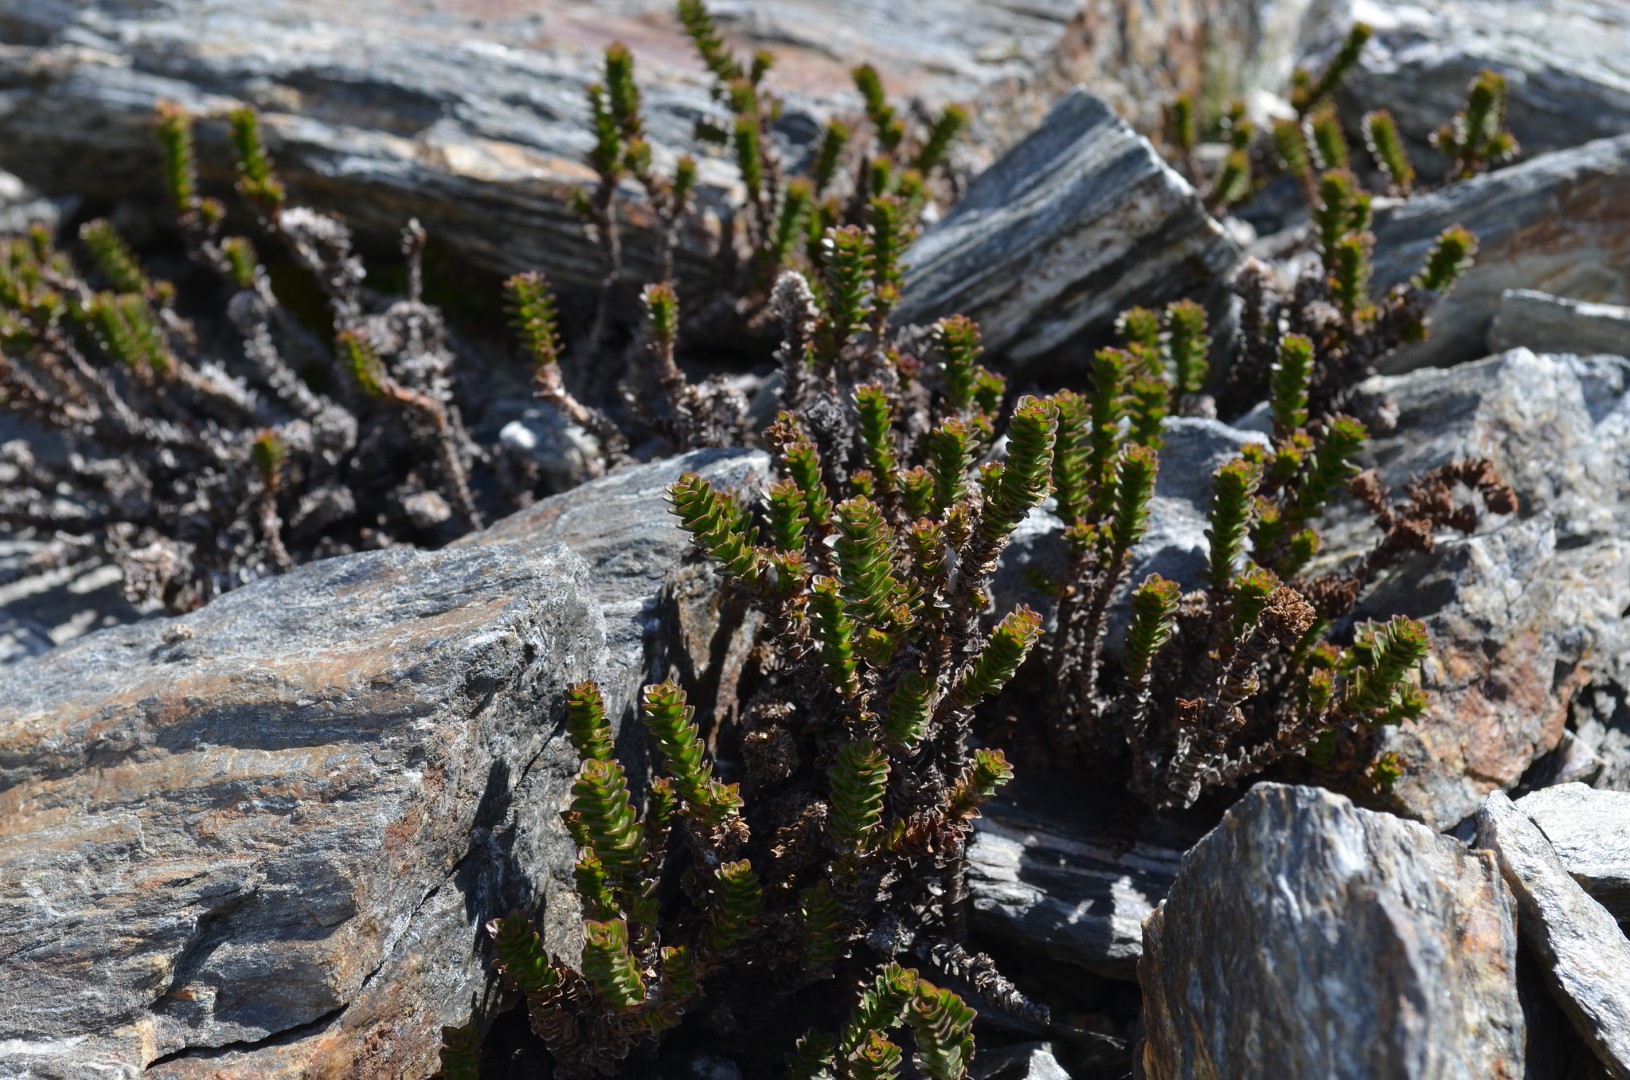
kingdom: Plantae
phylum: Tracheophyta
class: Magnoliopsida
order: Lamiales
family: Plantaginaceae
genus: Veronica
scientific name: Veronica epacridea
